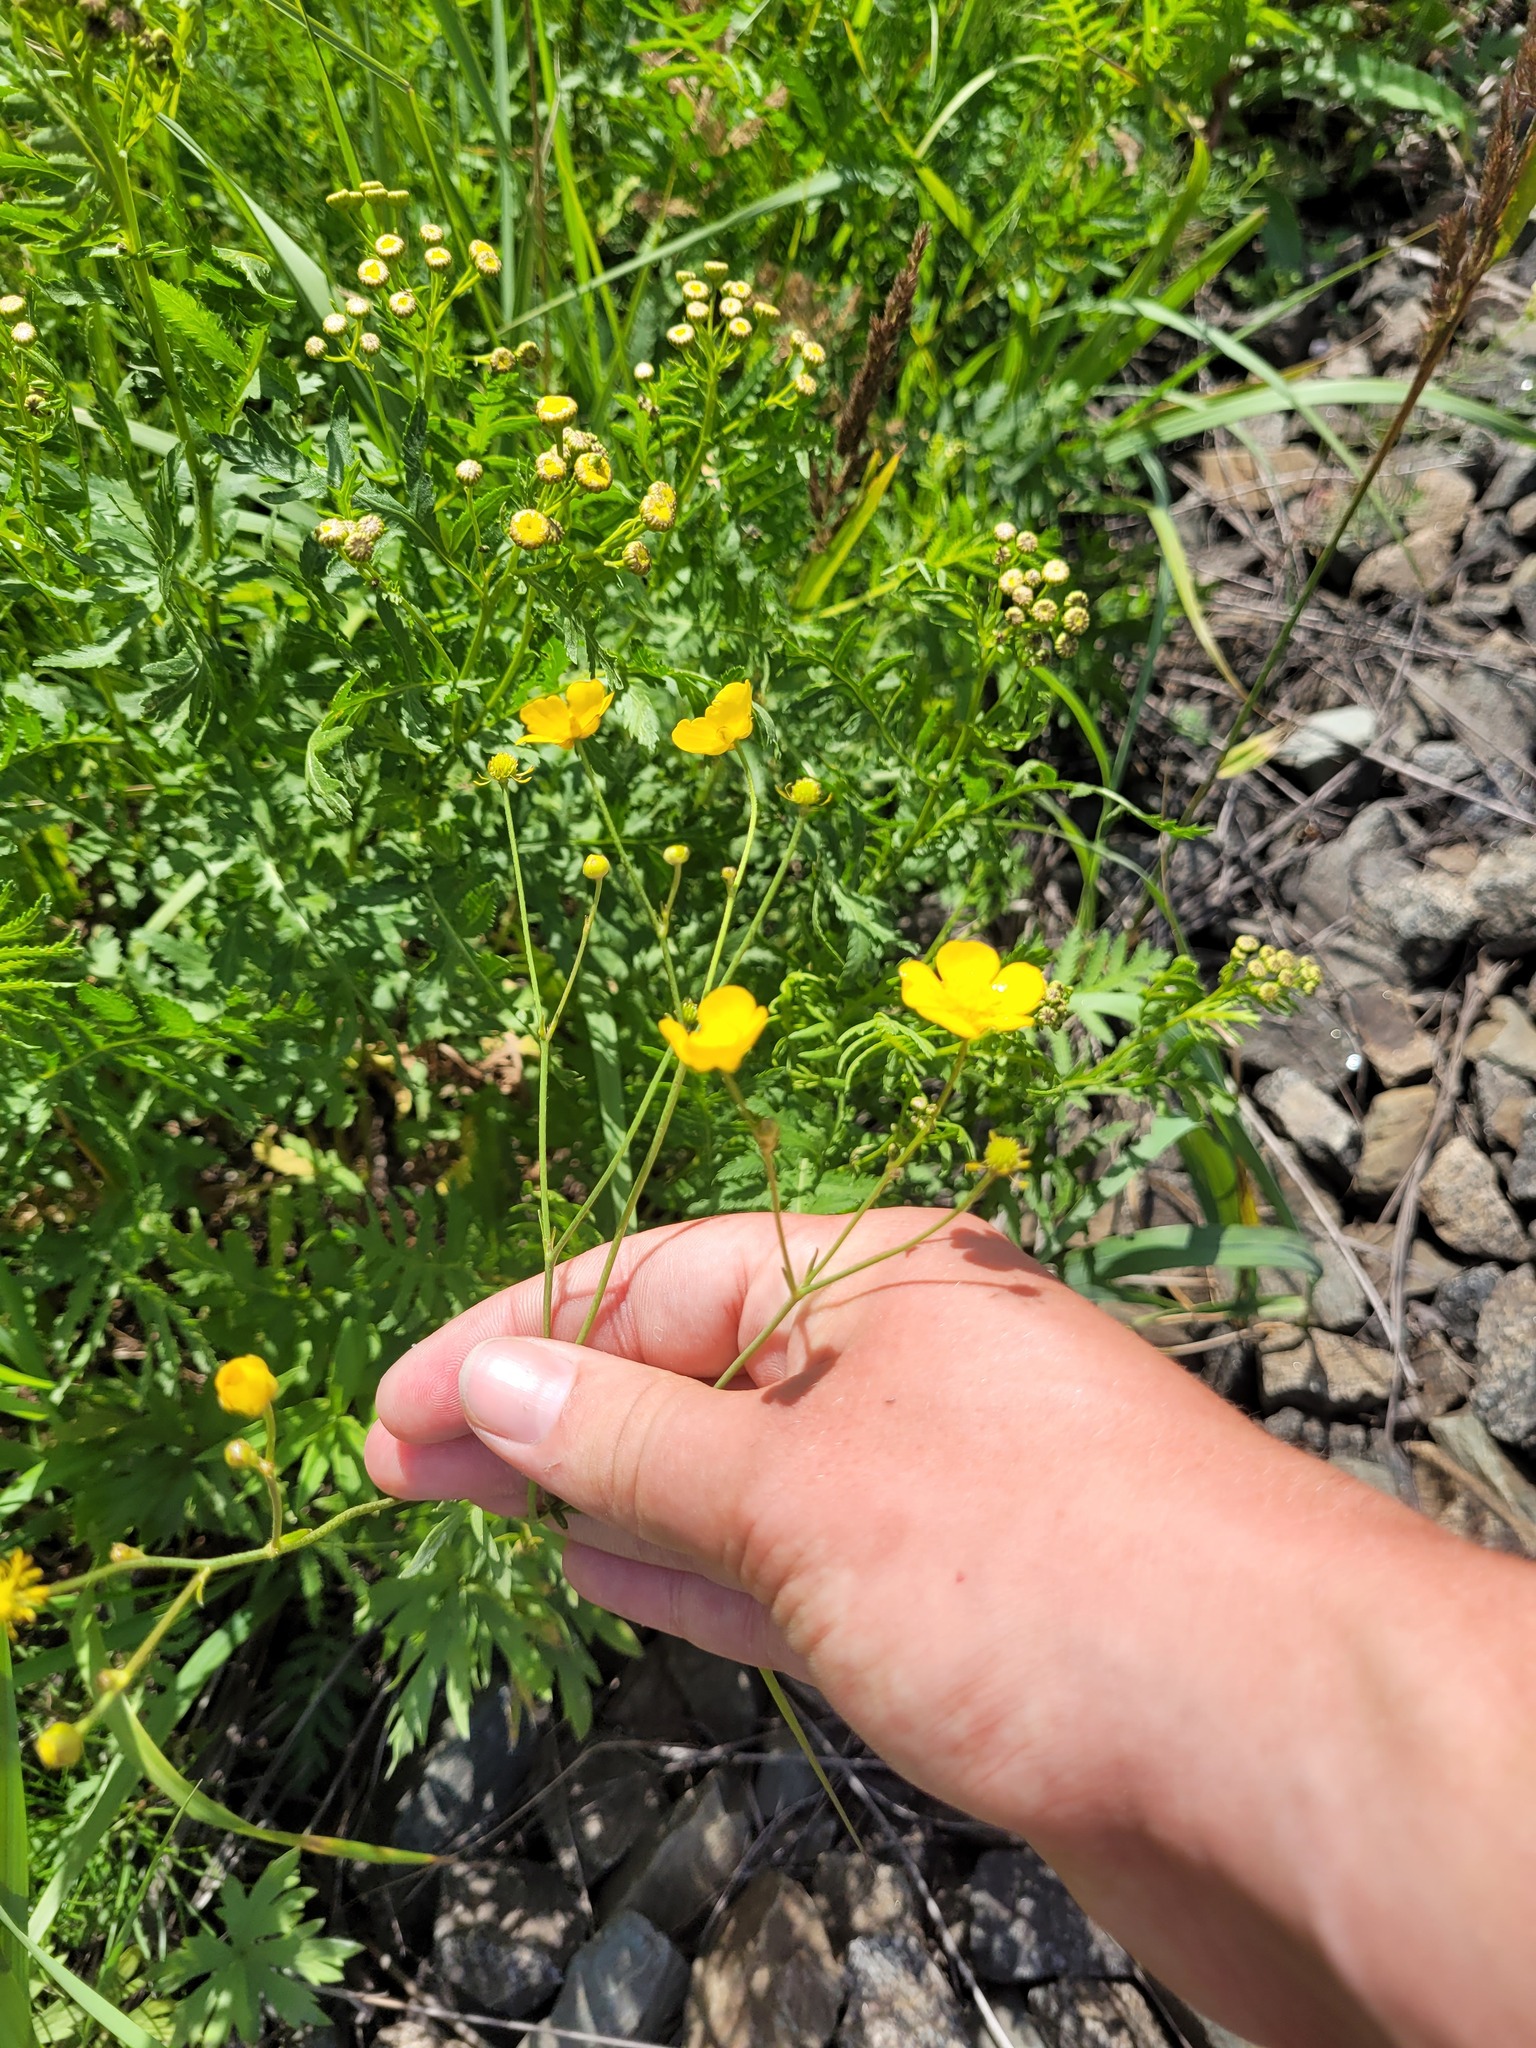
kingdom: Plantae
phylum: Tracheophyta
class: Magnoliopsida
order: Ranunculales
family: Ranunculaceae
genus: Ranunculus
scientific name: Ranunculus acris
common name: Meadow buttercup
